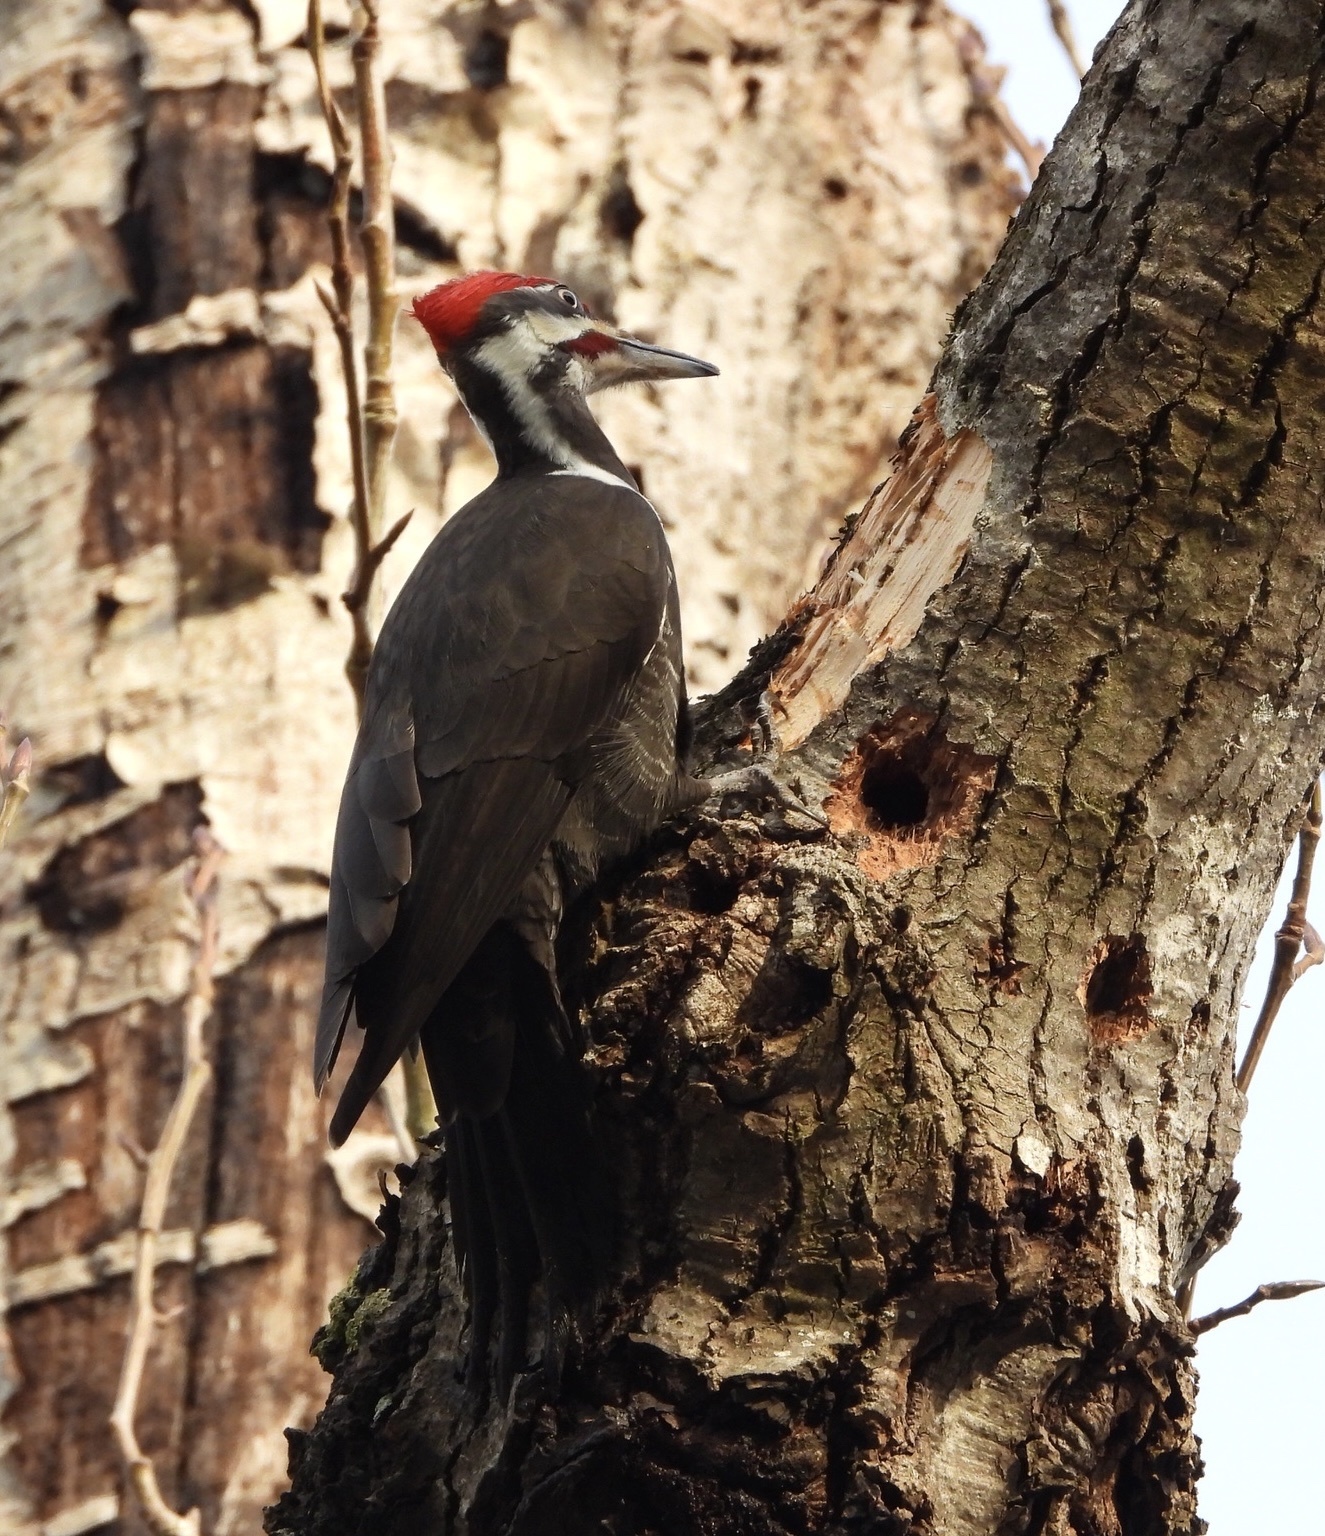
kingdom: Animalia
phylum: Chordata
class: Aves
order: Piciformes
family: Picidae
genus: Dryocopus
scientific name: Dryocopus pileatus
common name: Pileated woodpecker
